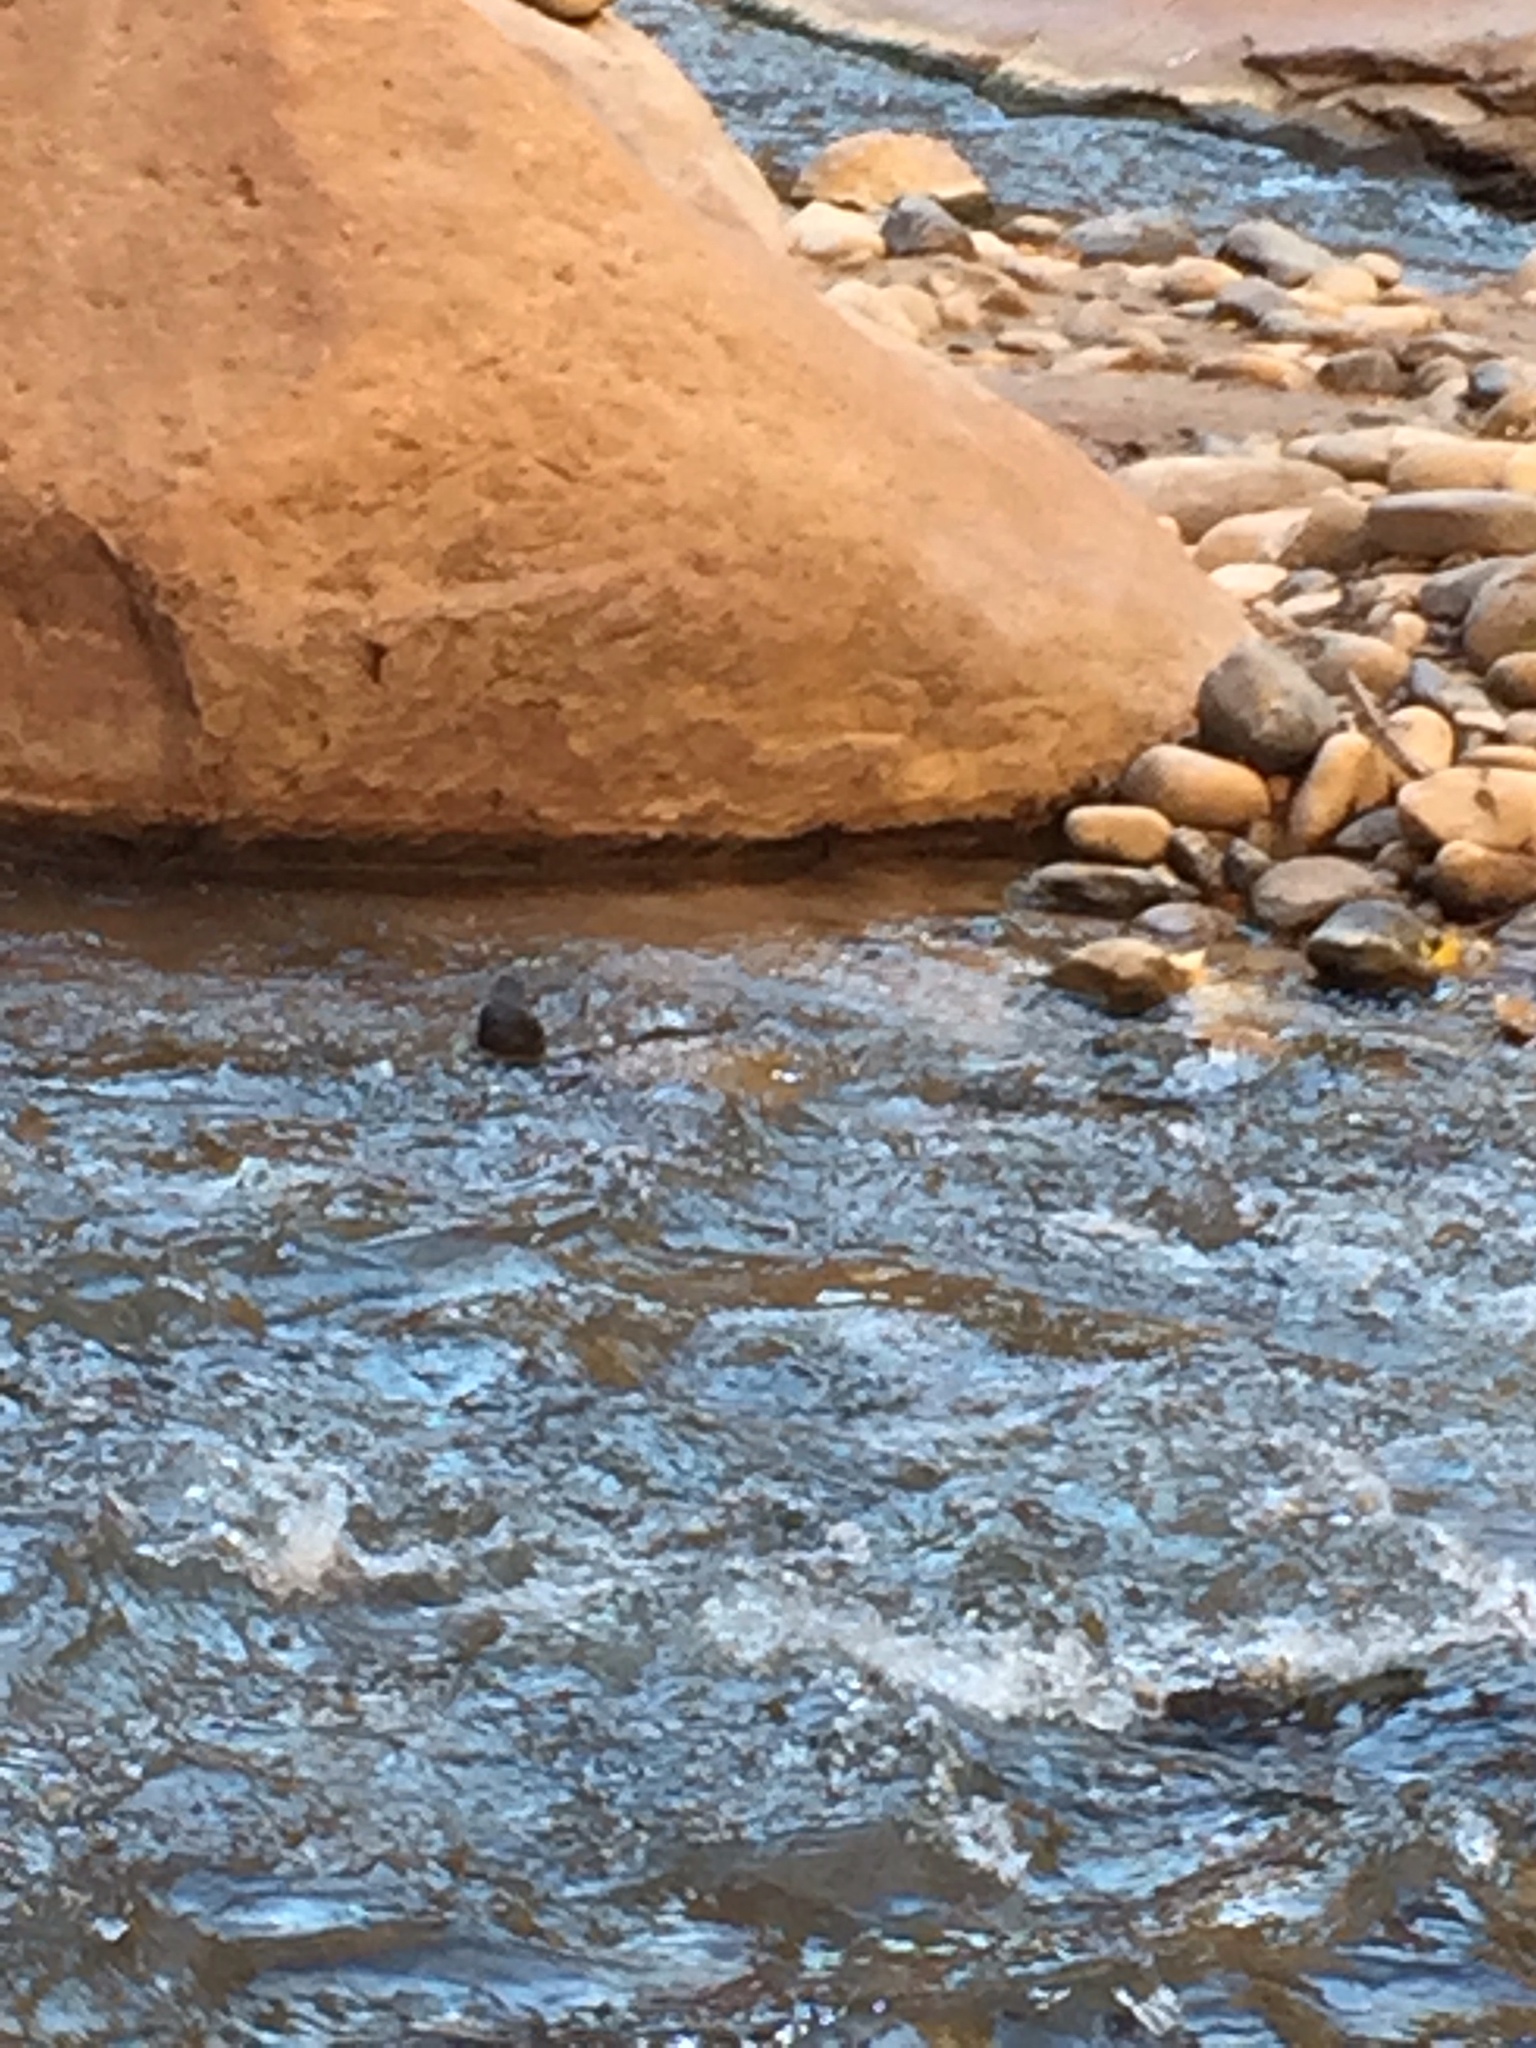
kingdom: Animalia
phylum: Chordata
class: Aves
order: Passeriformes
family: Cinclidae
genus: Cinclus
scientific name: Cinclus mexicanus
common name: American dipper
